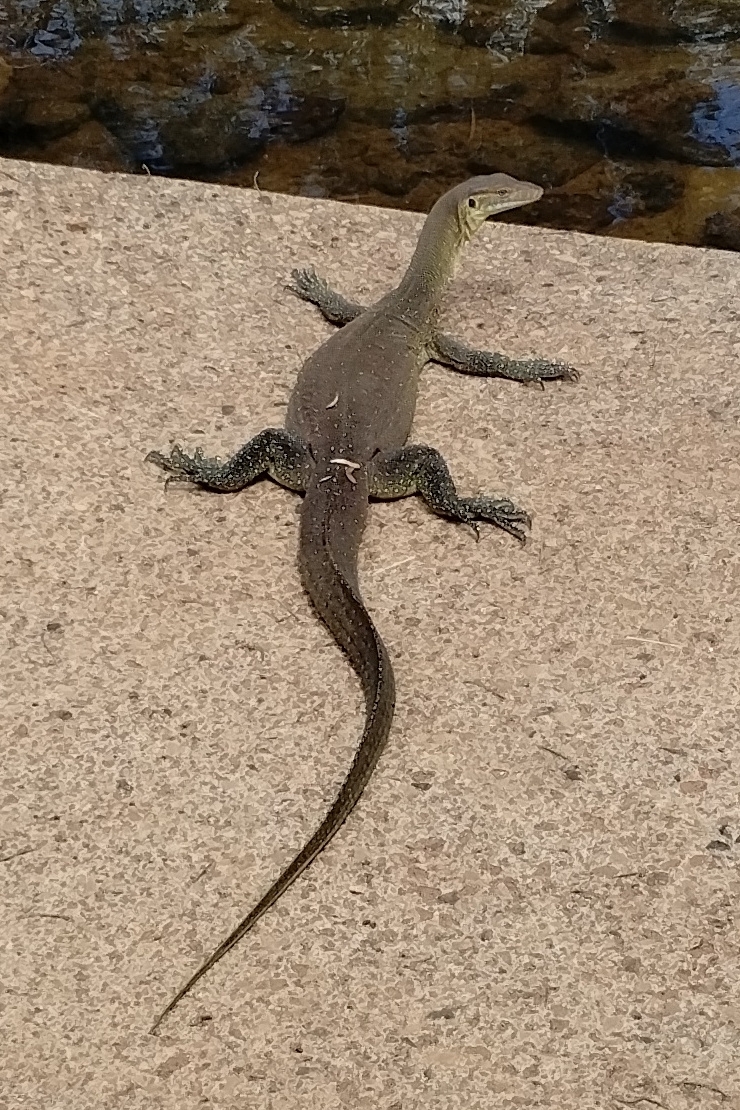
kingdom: Animalia
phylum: Chordata
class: Squamata
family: Varanidae
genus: Varanus
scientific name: Varanus mertensi
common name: Mertens's water monitor
